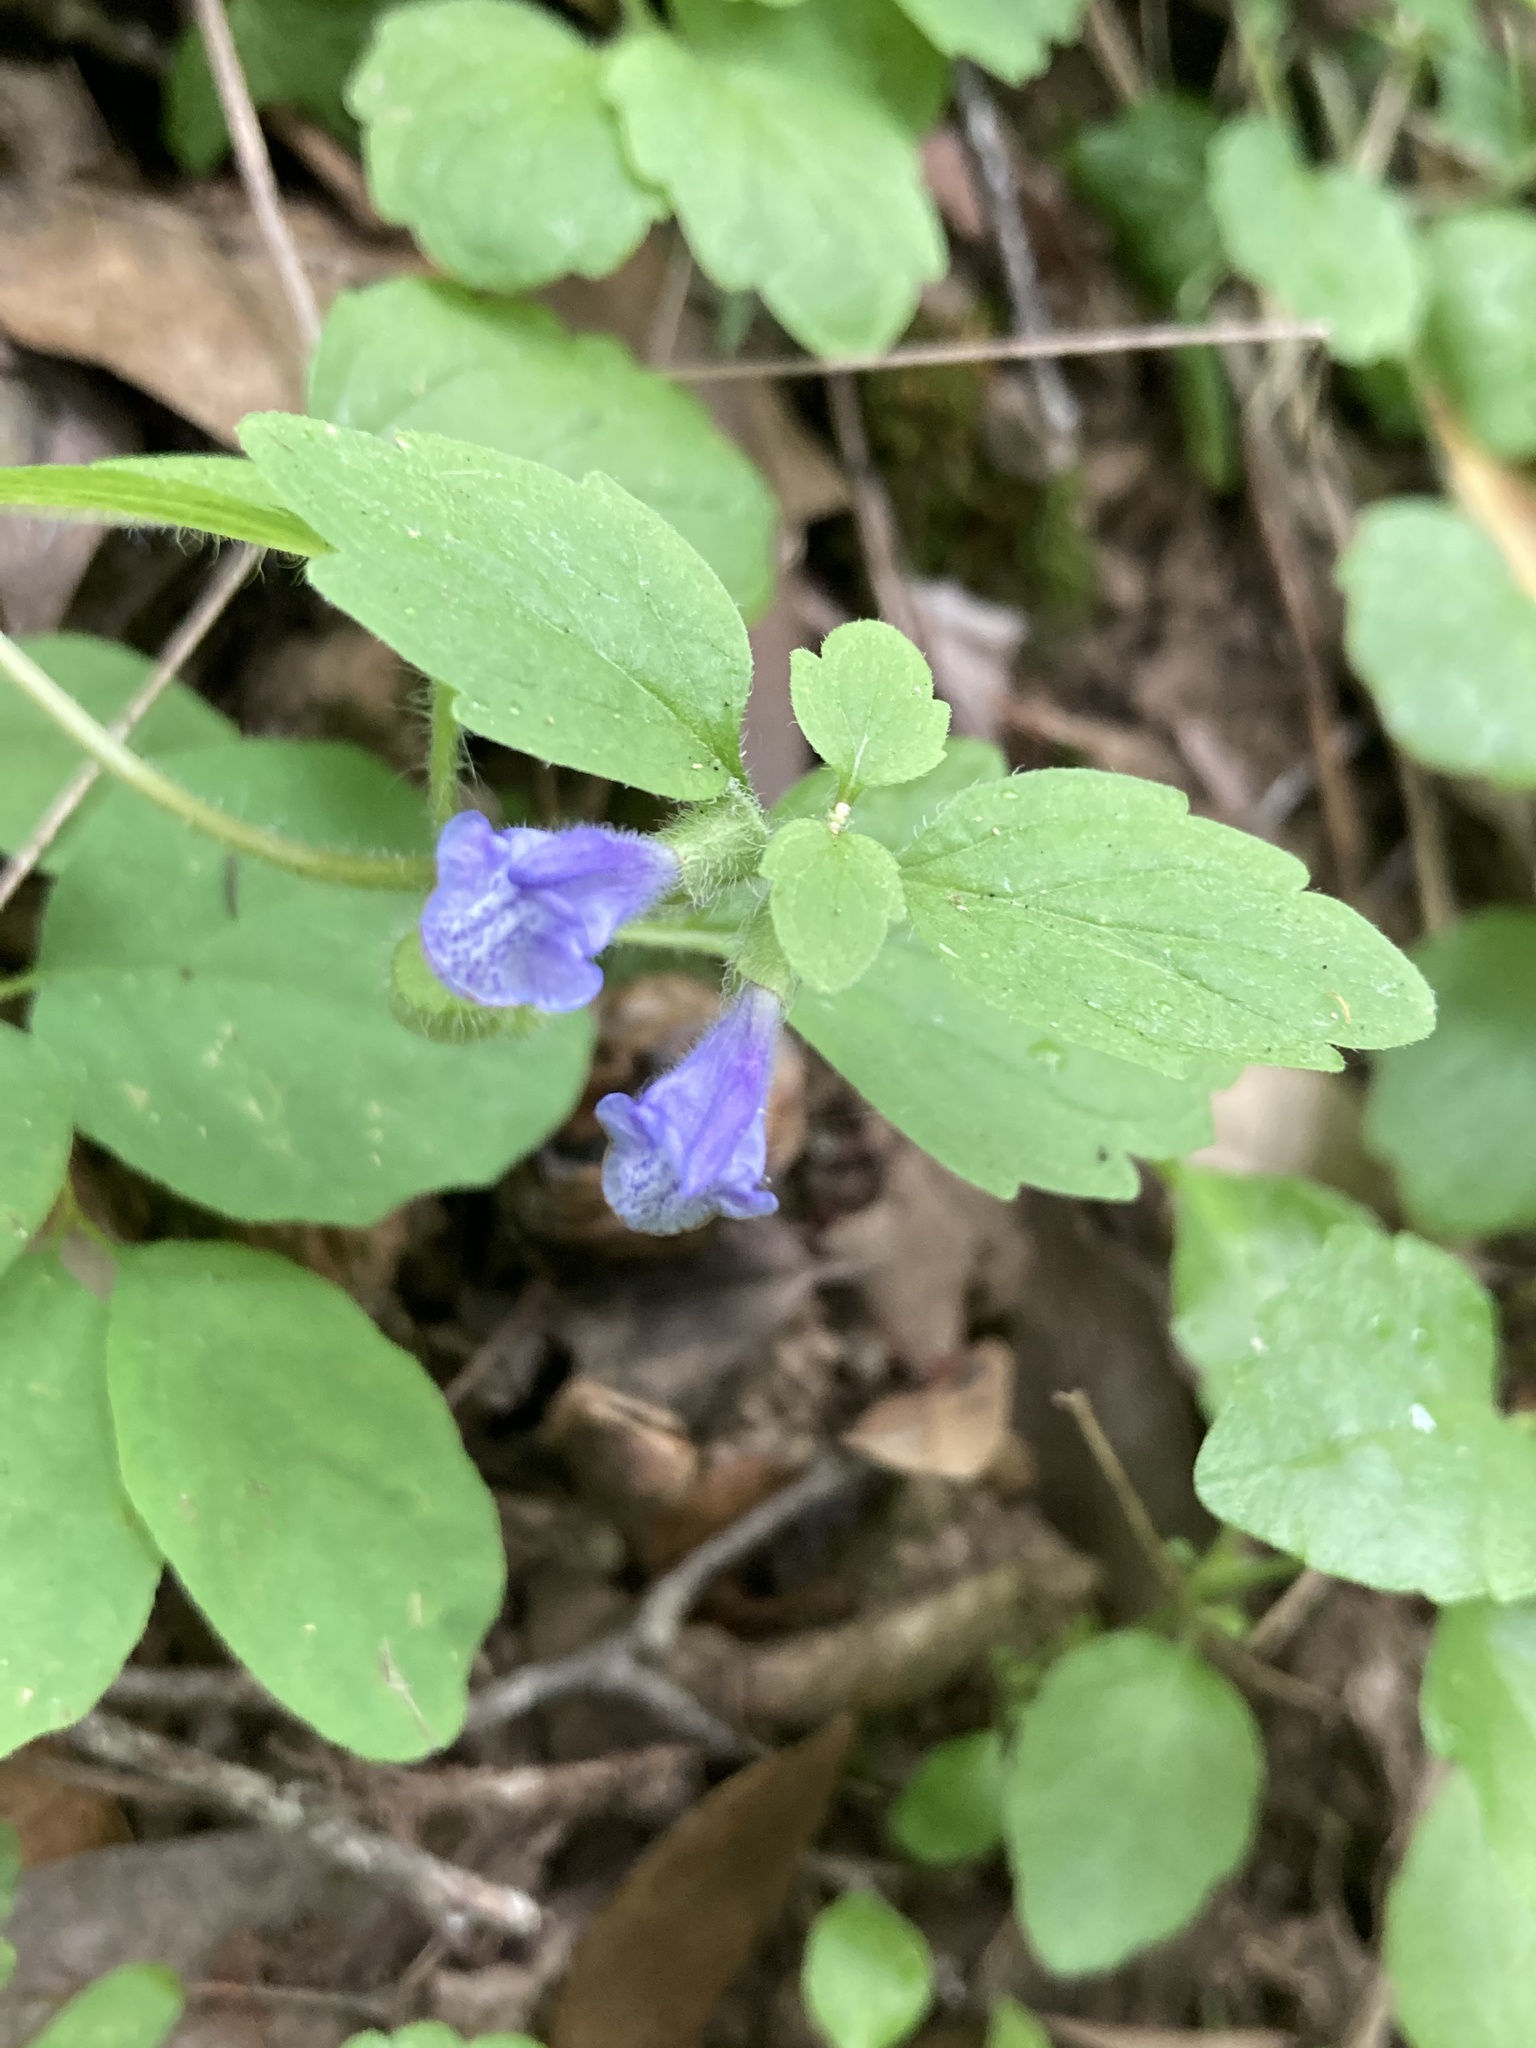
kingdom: Plantae
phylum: Tracheophyta
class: Magnoliopsida
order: Lamiales
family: Lamiaceae
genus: Scutellaria
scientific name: Scutellaria tuberosa
